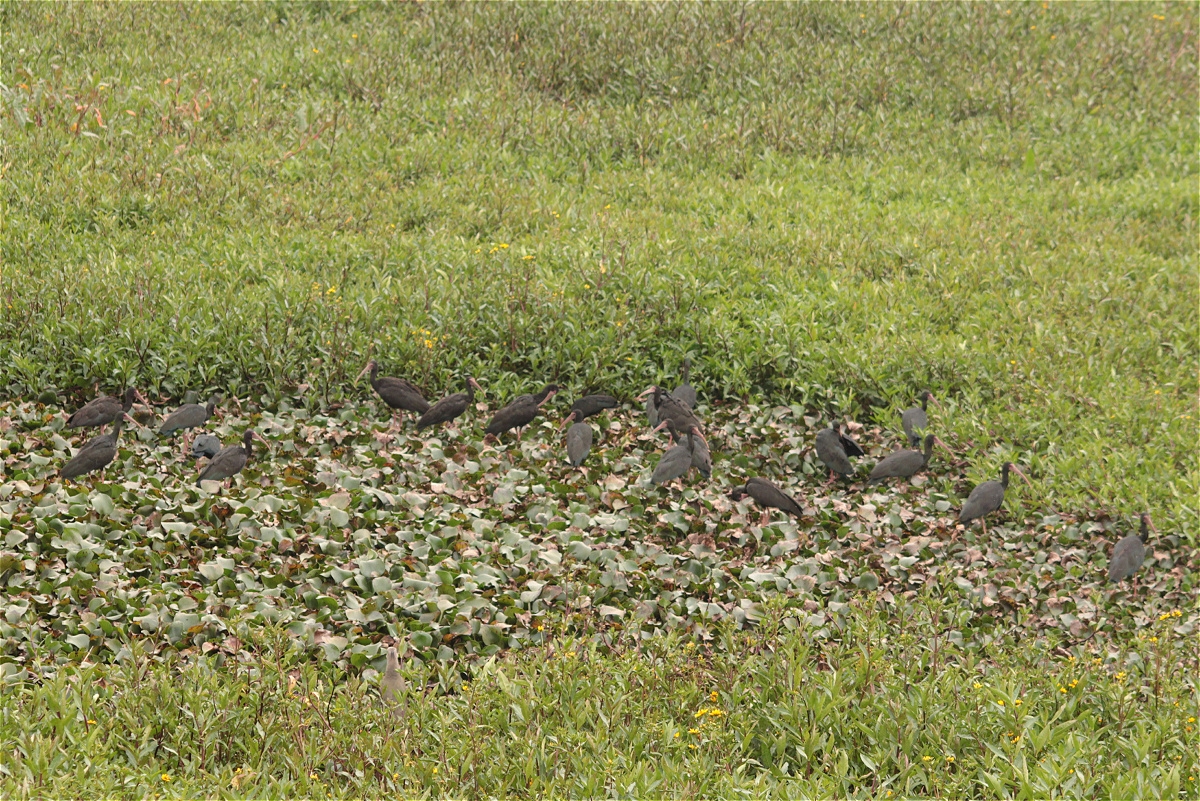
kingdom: Animalia
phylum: Chordata
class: Aves
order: Pelecaniformes
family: Threskiornithidae
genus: Phimosus
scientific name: Phimosus infuscatus
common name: Bare-faced ibis
